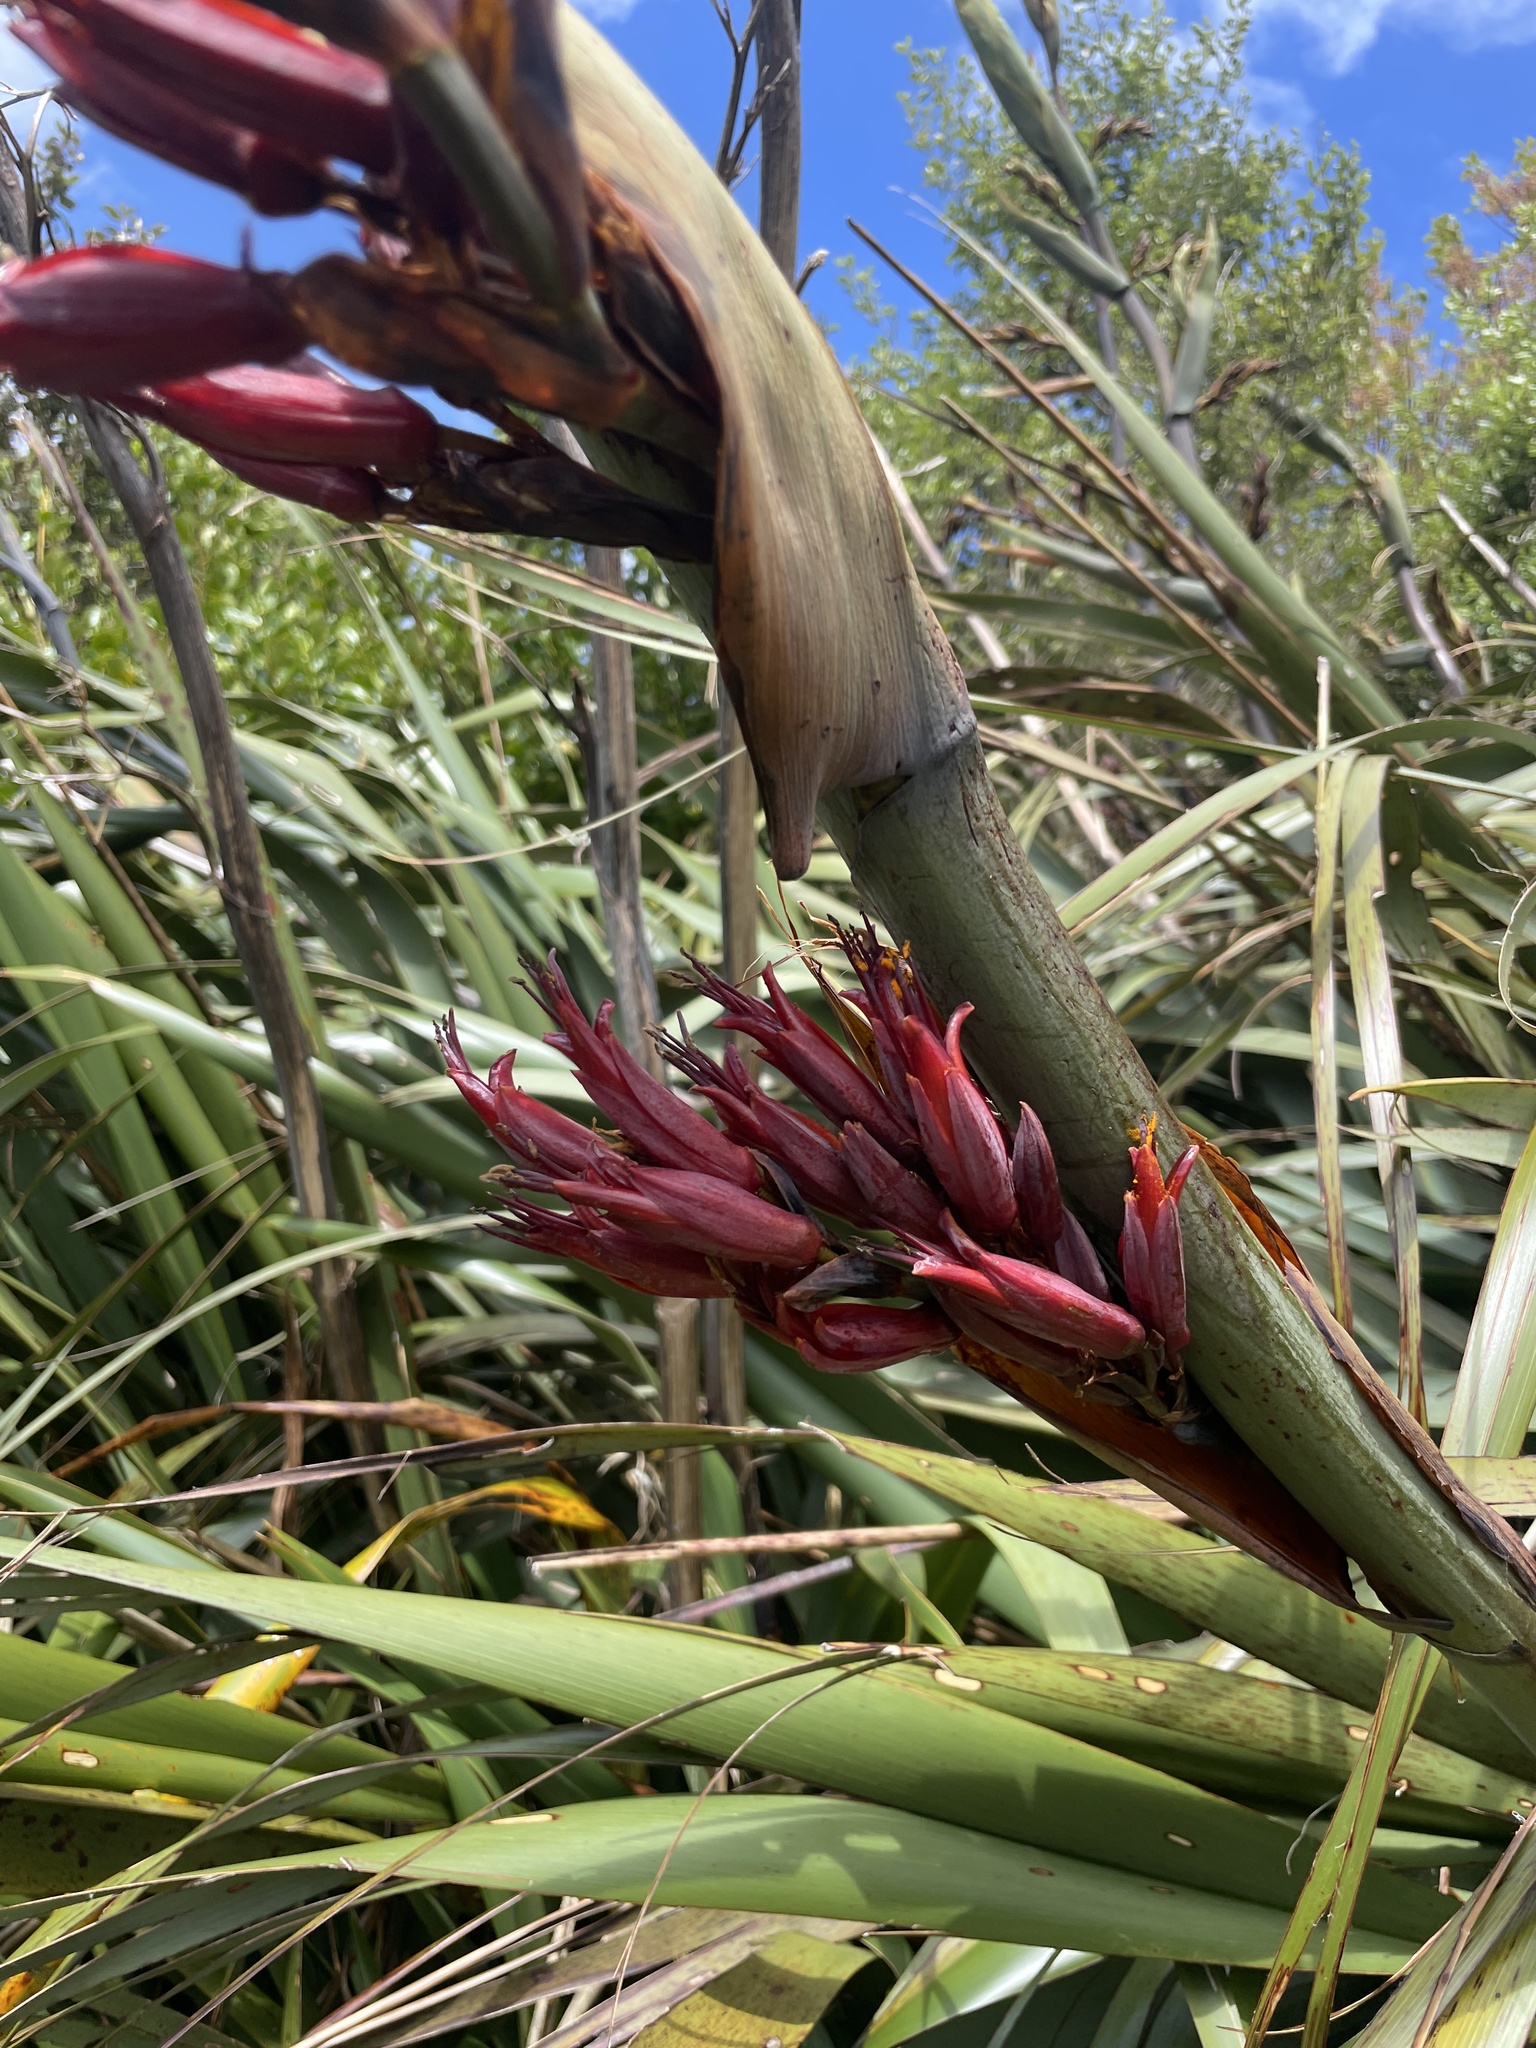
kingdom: Plantae
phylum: Tracheophyta
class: Liliopsida
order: Asparagales
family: Asphodelaceae
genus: Phormium
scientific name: Phormium tenax
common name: New zealand flax
